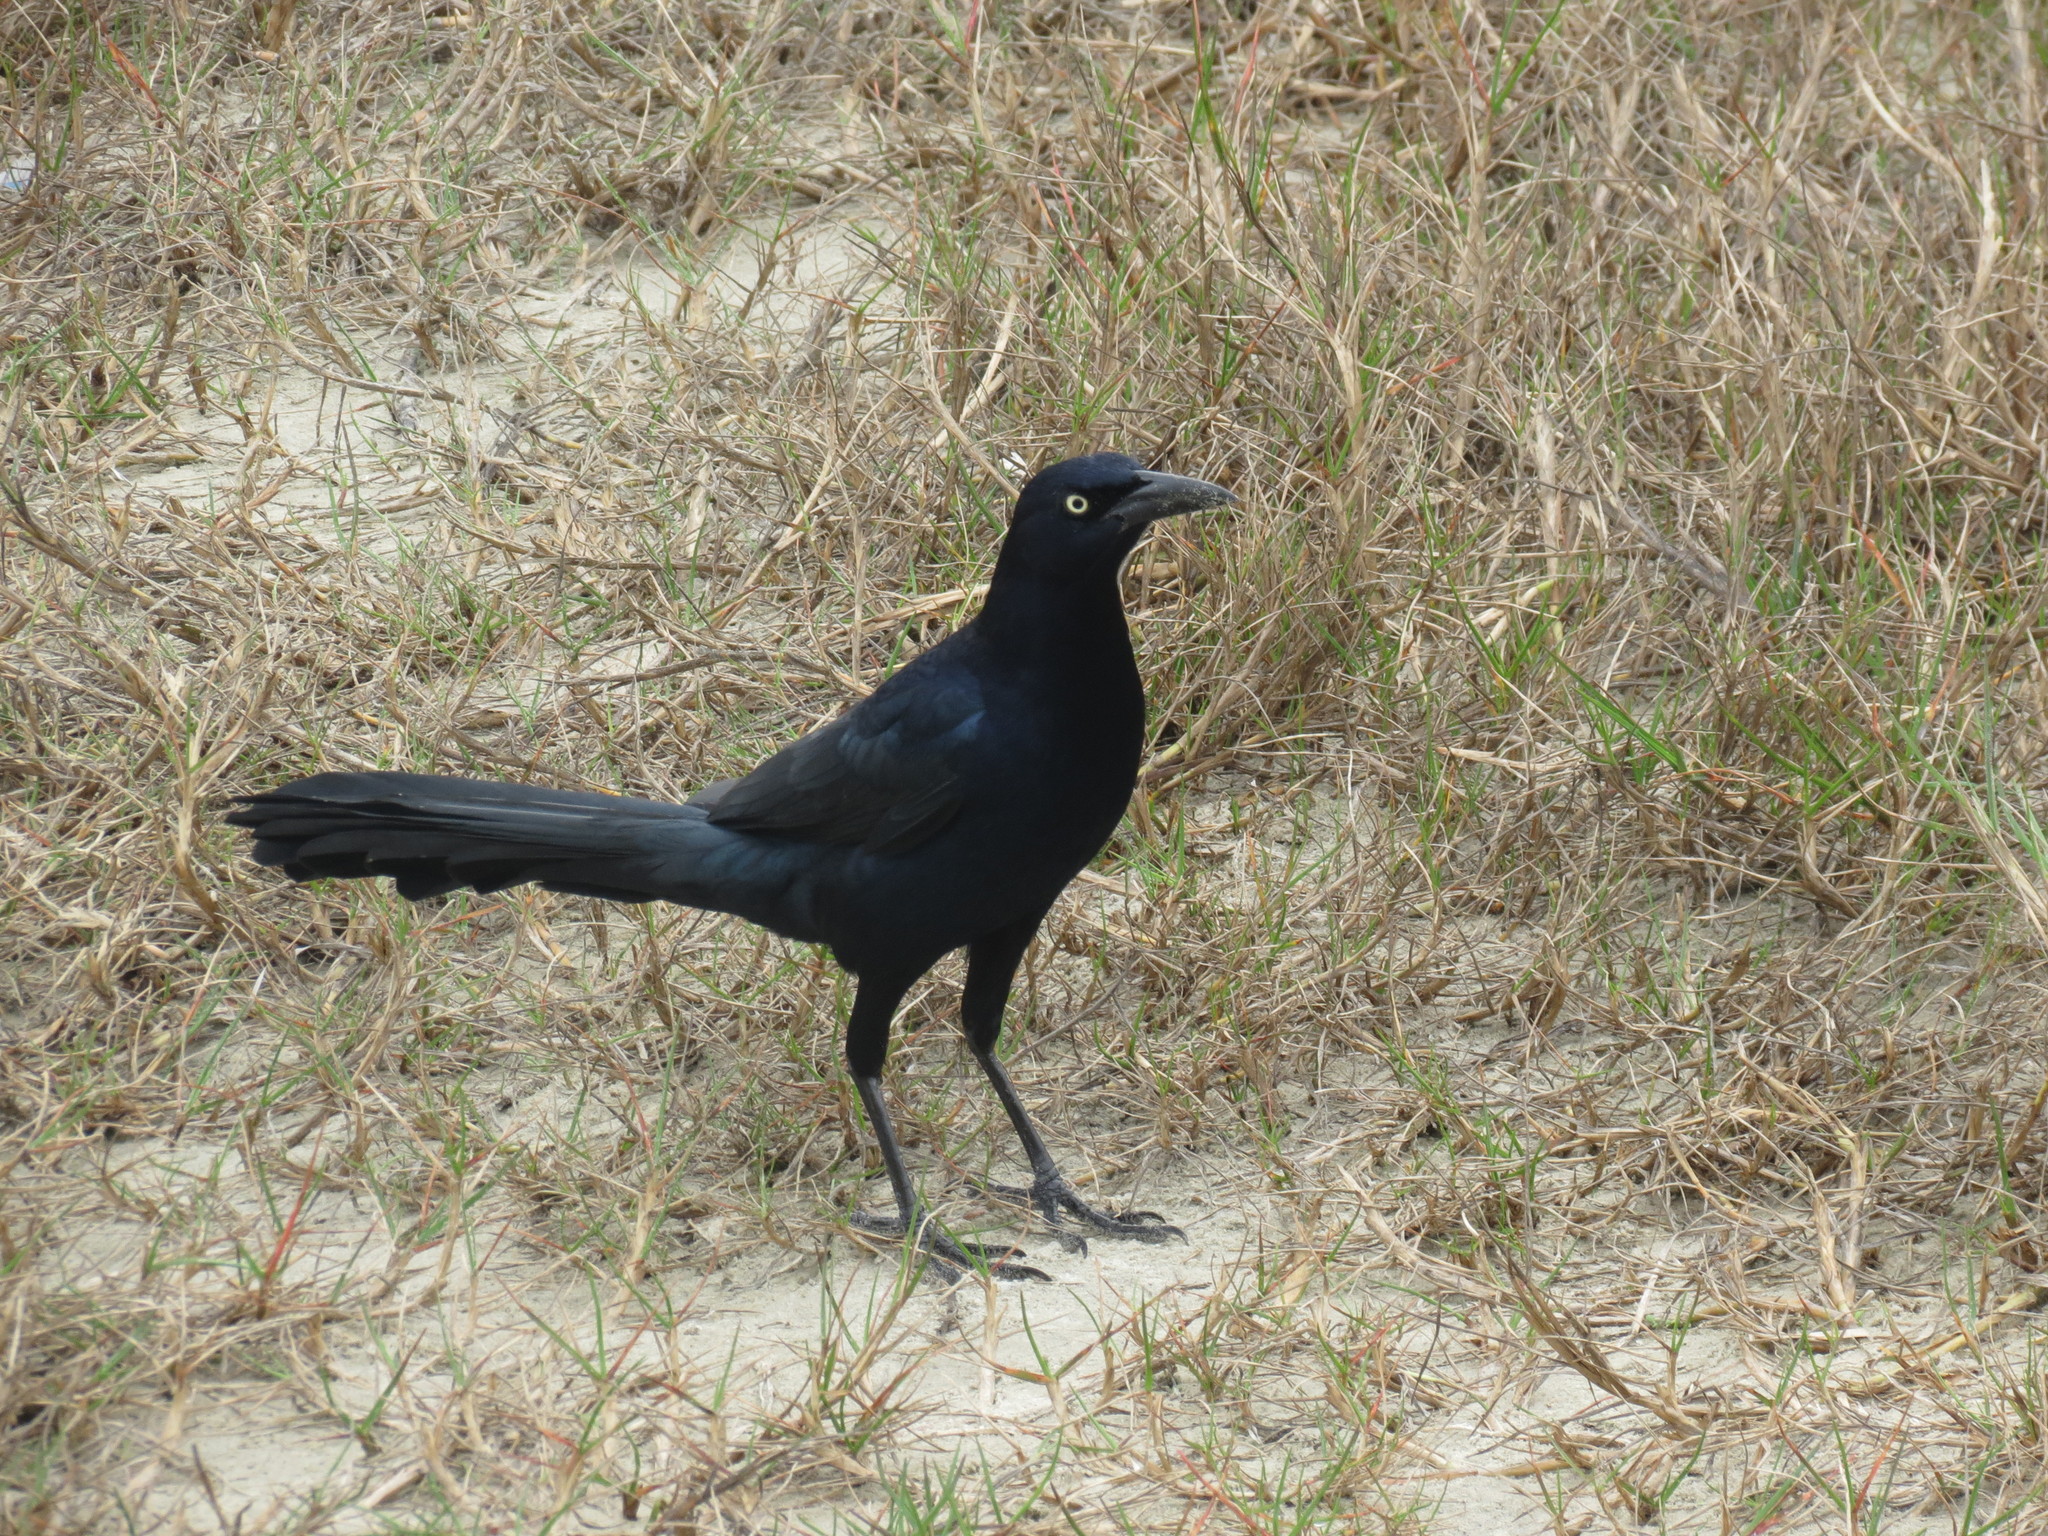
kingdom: Animalia
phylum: Chordata
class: Aves
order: Passeriformes
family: Icteridae
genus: Quiscalus
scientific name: Quiscalus mexicanus
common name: Great-tailed grackle
